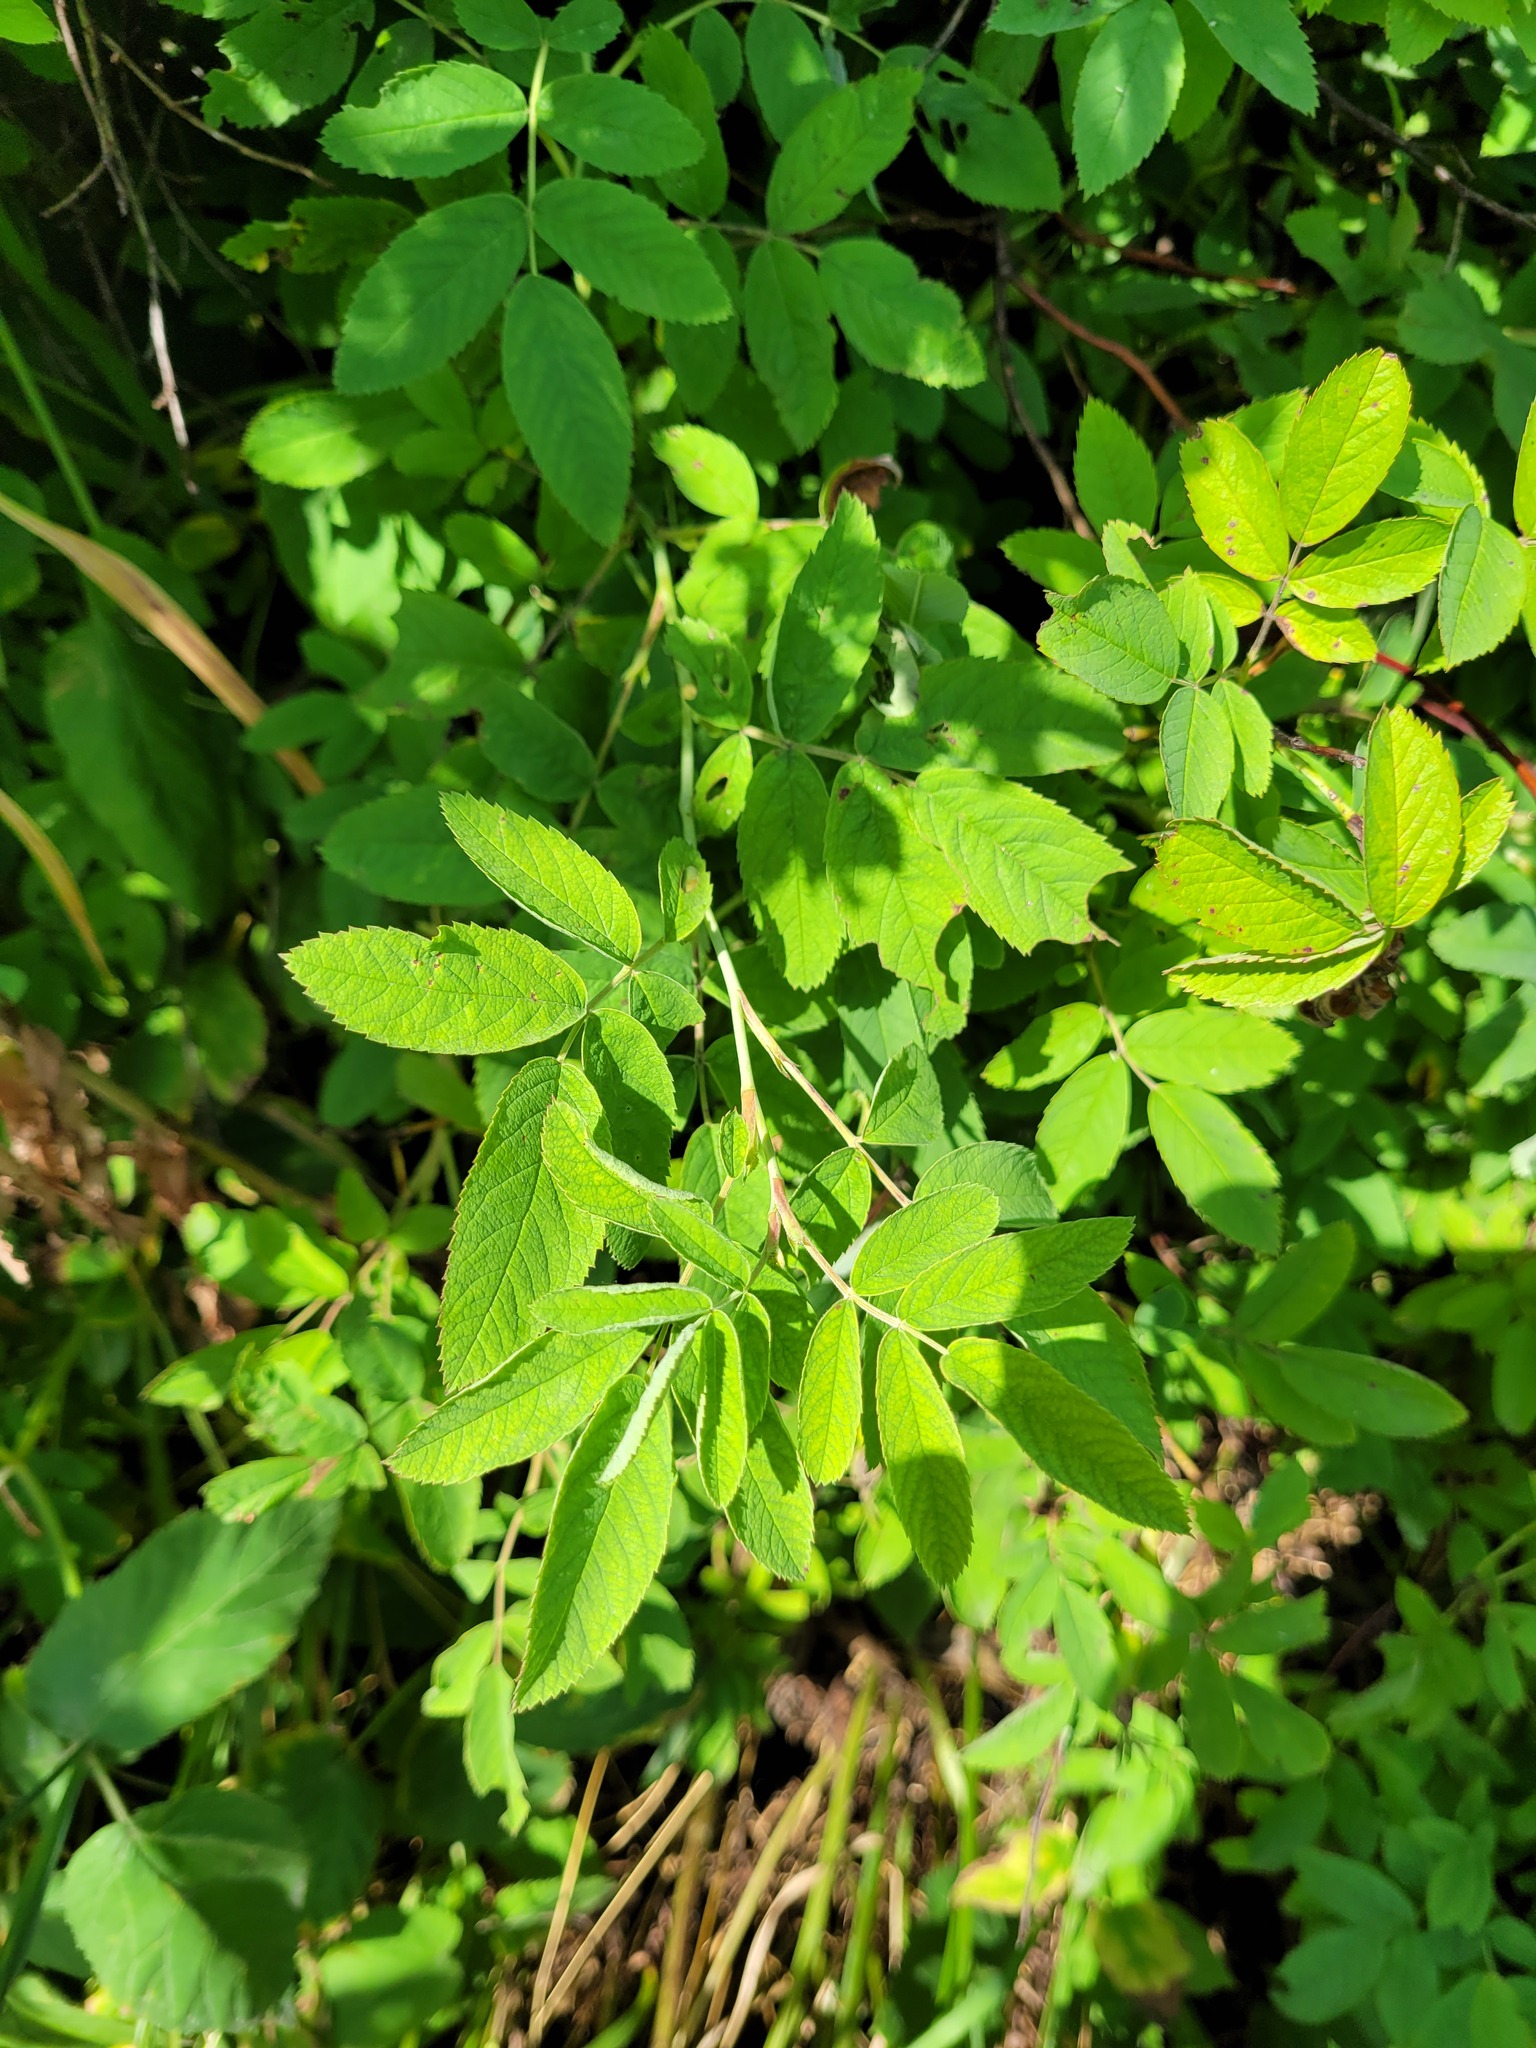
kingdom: Plantae
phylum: Tracheophyta
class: Magnoliopsida
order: Rosales
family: Rosaceae
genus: Rosa
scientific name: Rosa majalis
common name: Cinnamon rose
